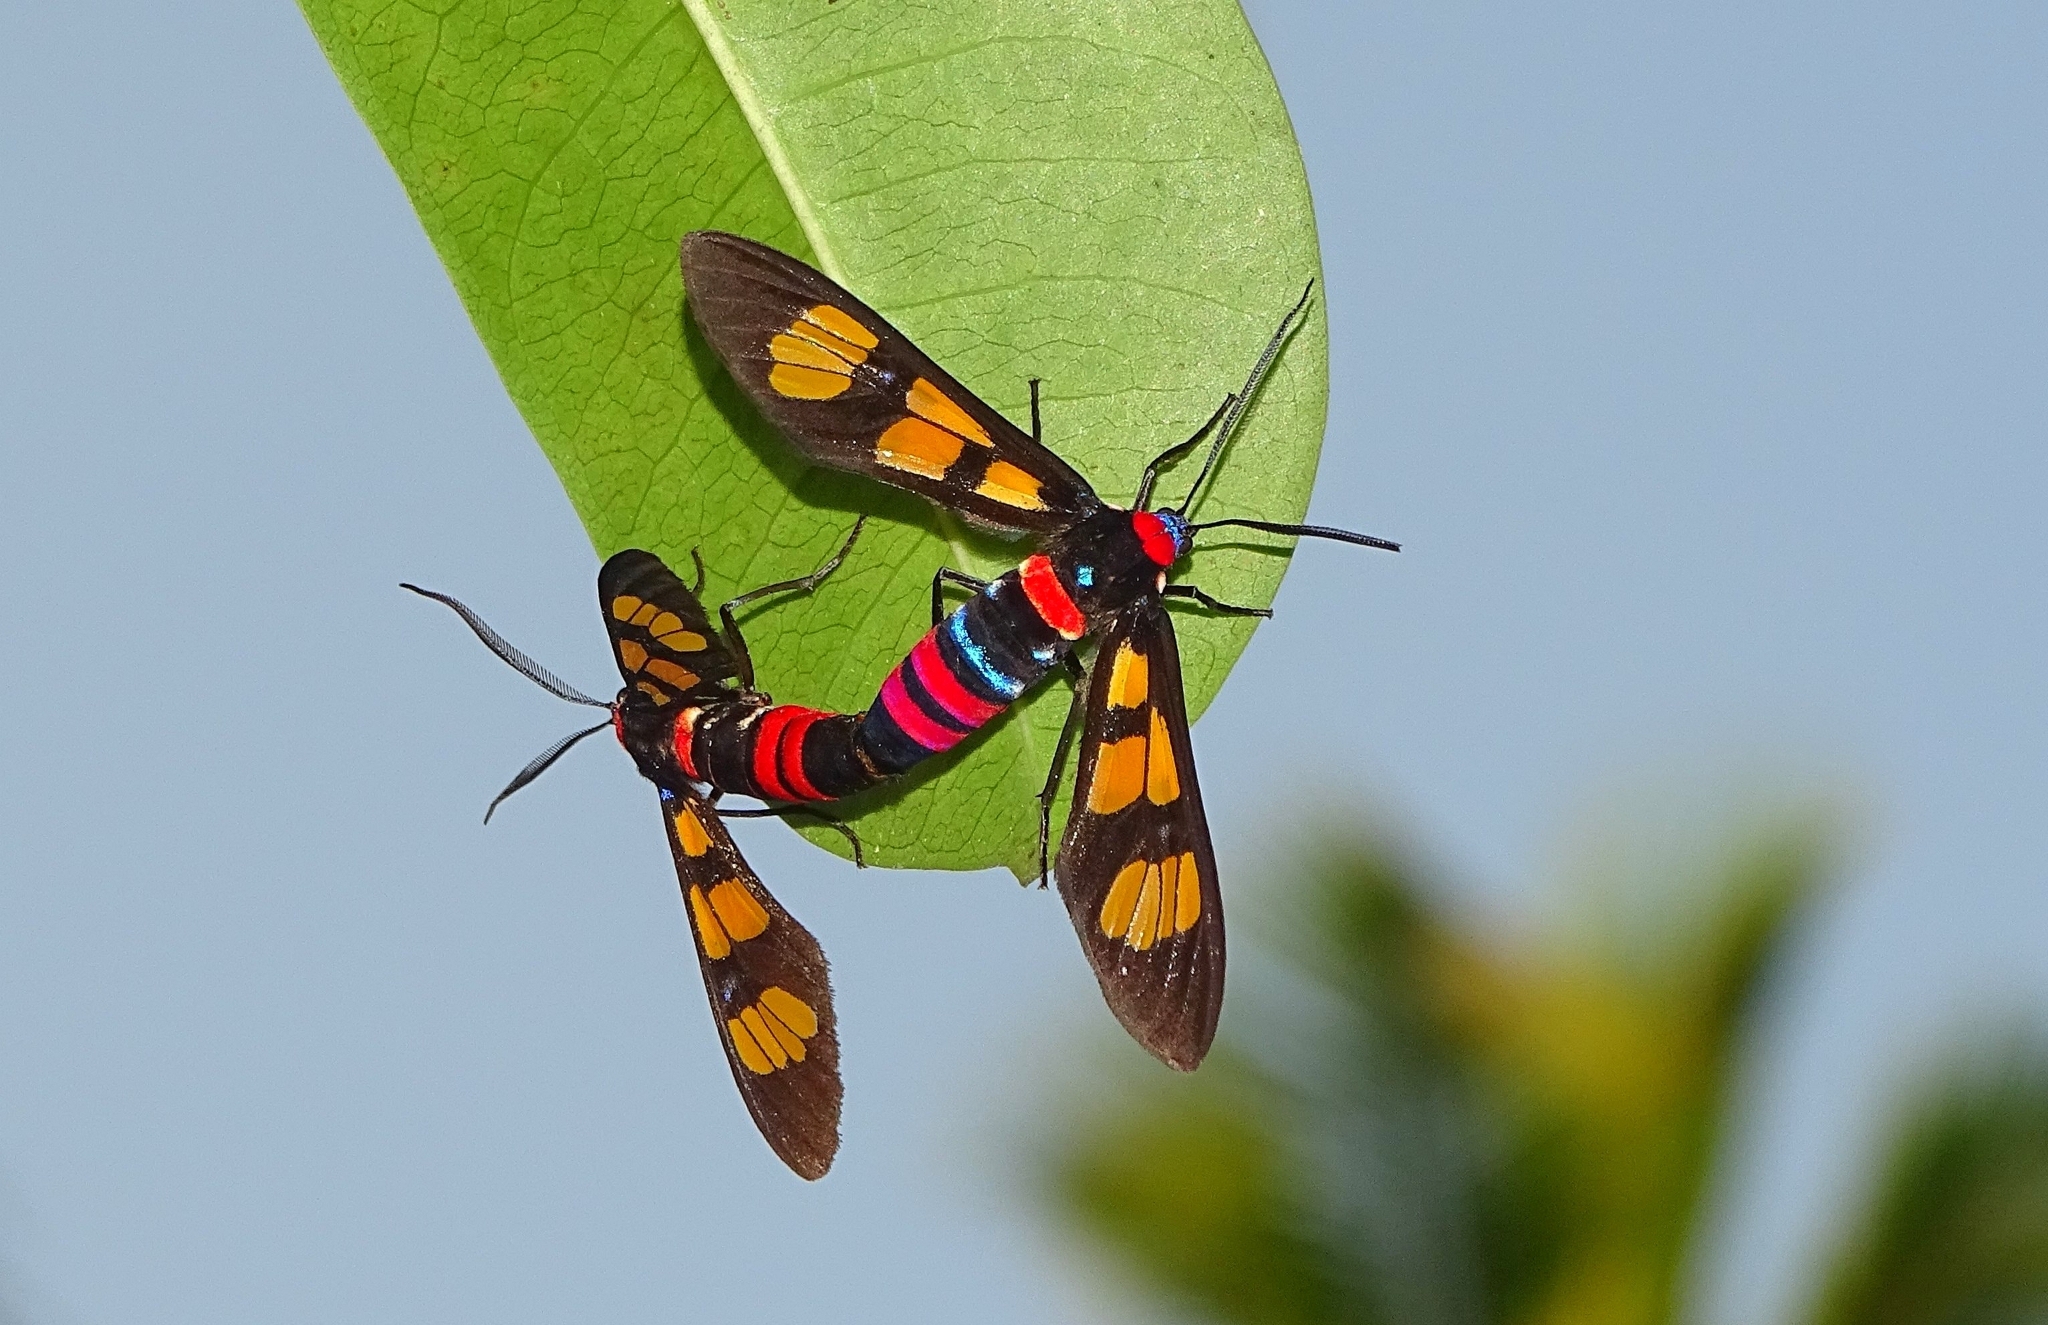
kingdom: Animalia
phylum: Arthropoda
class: Insecta
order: Lepidoptera
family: Erebidae
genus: Euchromia
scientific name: Euchromia polymena
